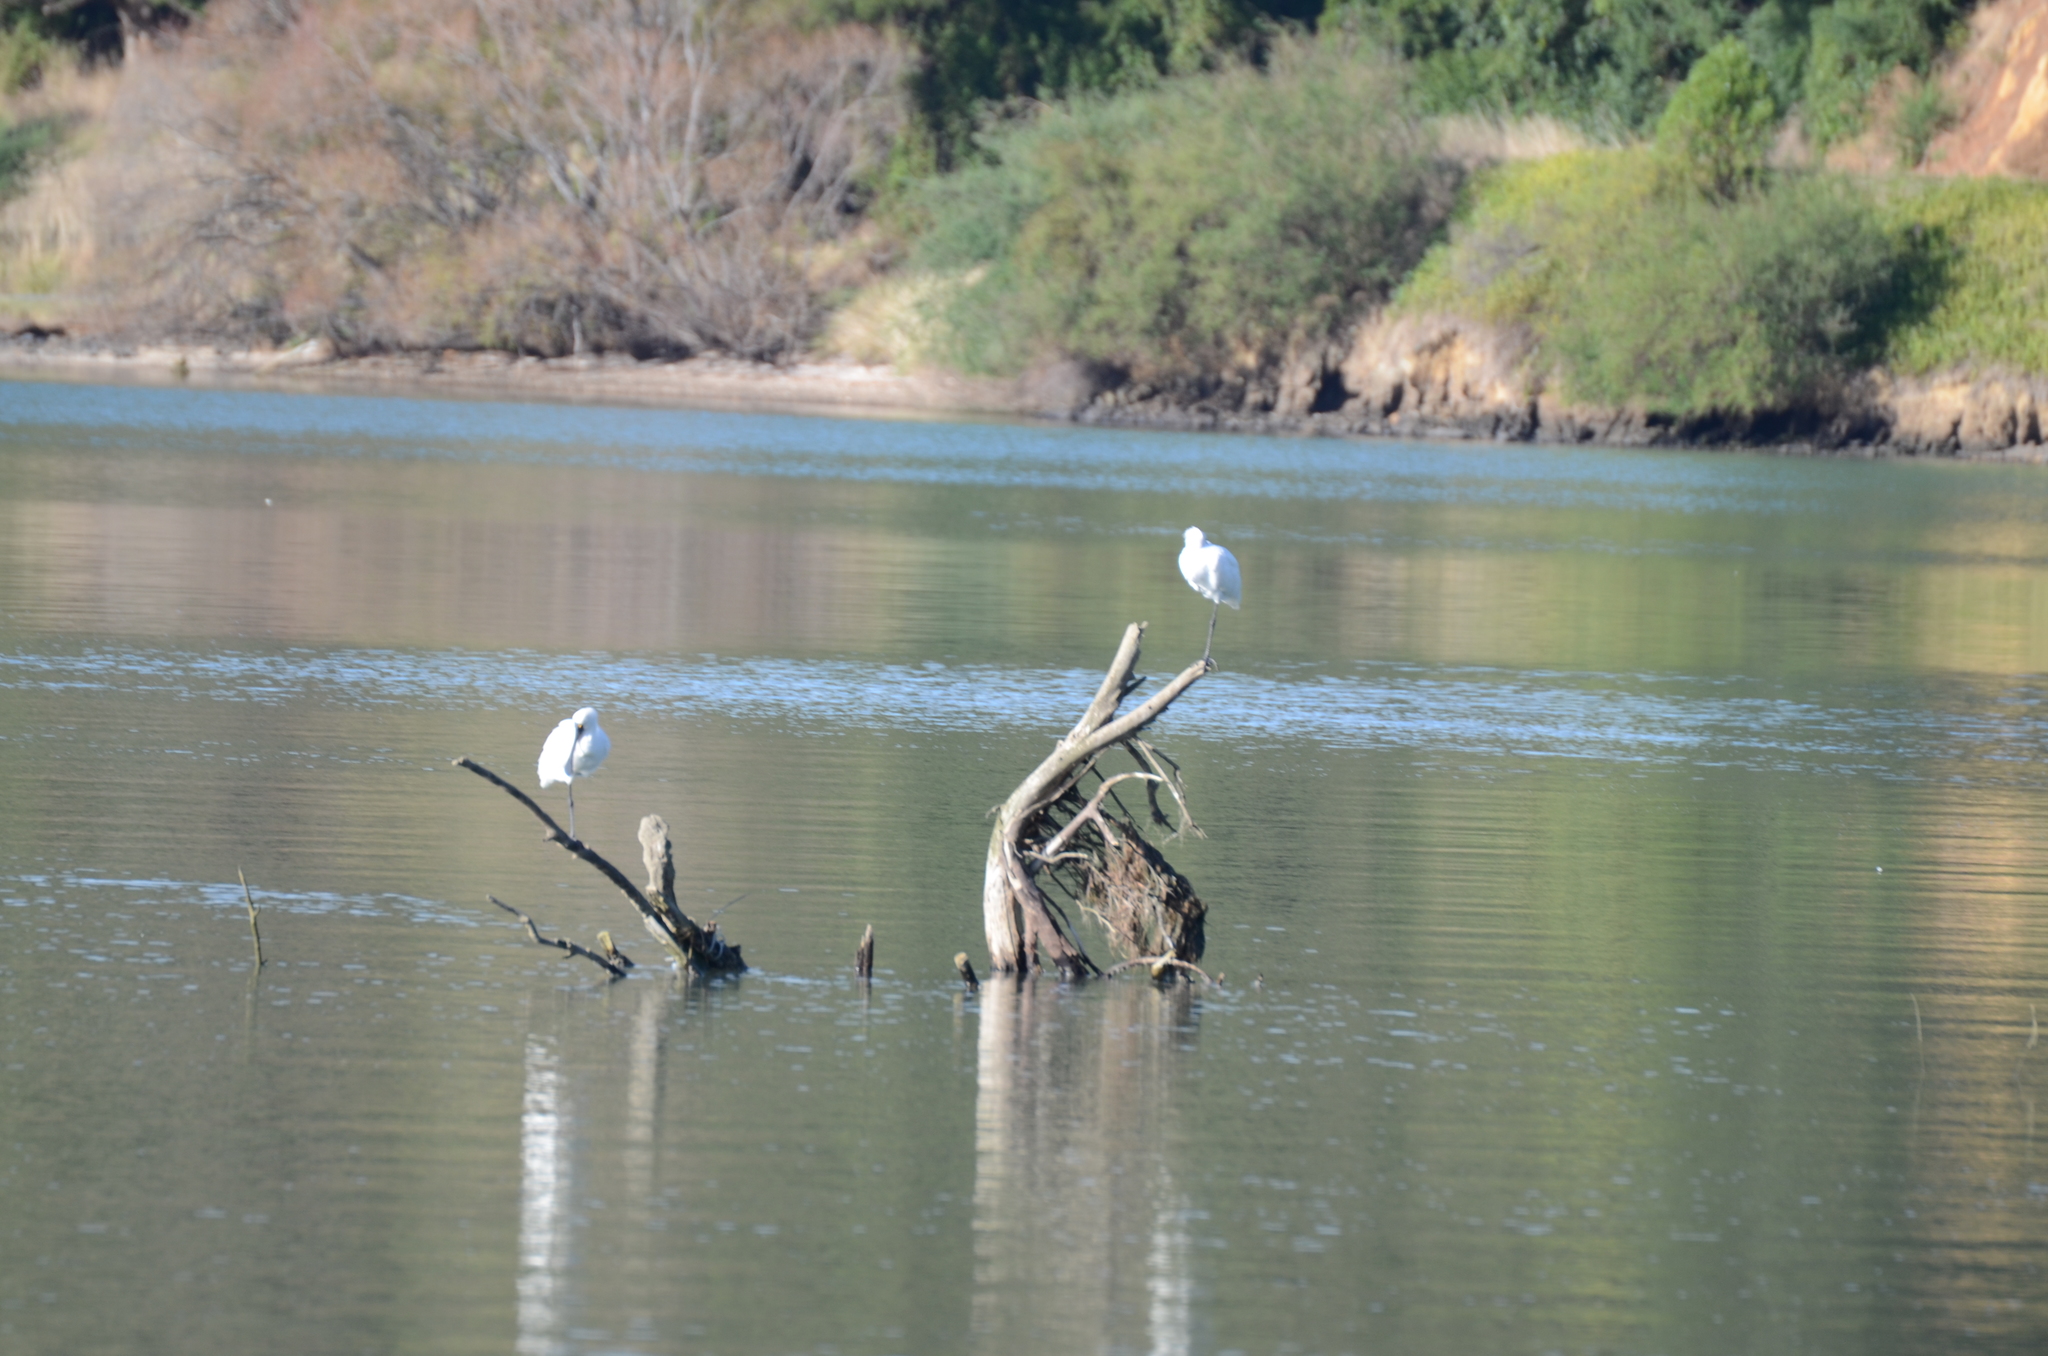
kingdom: Animalia
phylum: Chordata
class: Aves
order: Pelecaniformes
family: Threskiornithidae
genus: Platalea
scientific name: Platalea regia
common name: Royal spoonbill
